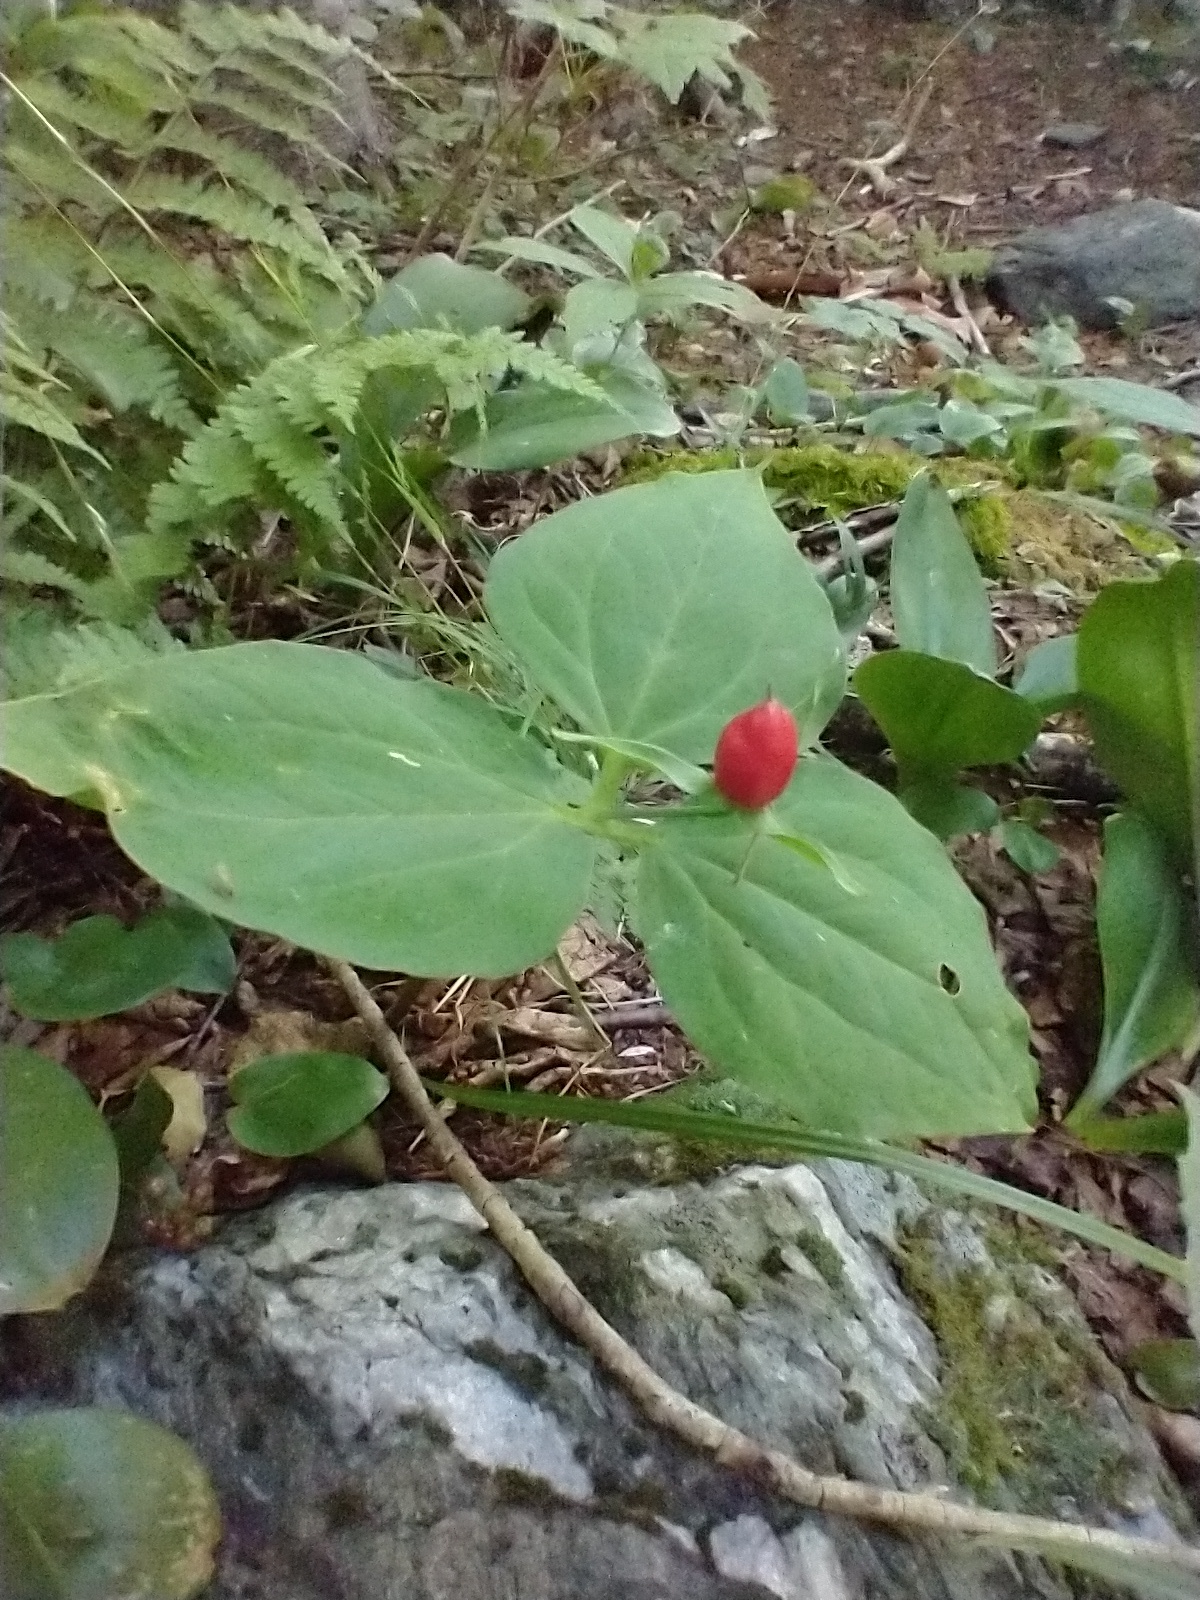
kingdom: Plantae
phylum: Tracheophyta
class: Liliopsida
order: Liliales
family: Melanthiaceae
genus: Trillium
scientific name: Trillium undulatum
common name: Paint trillium
